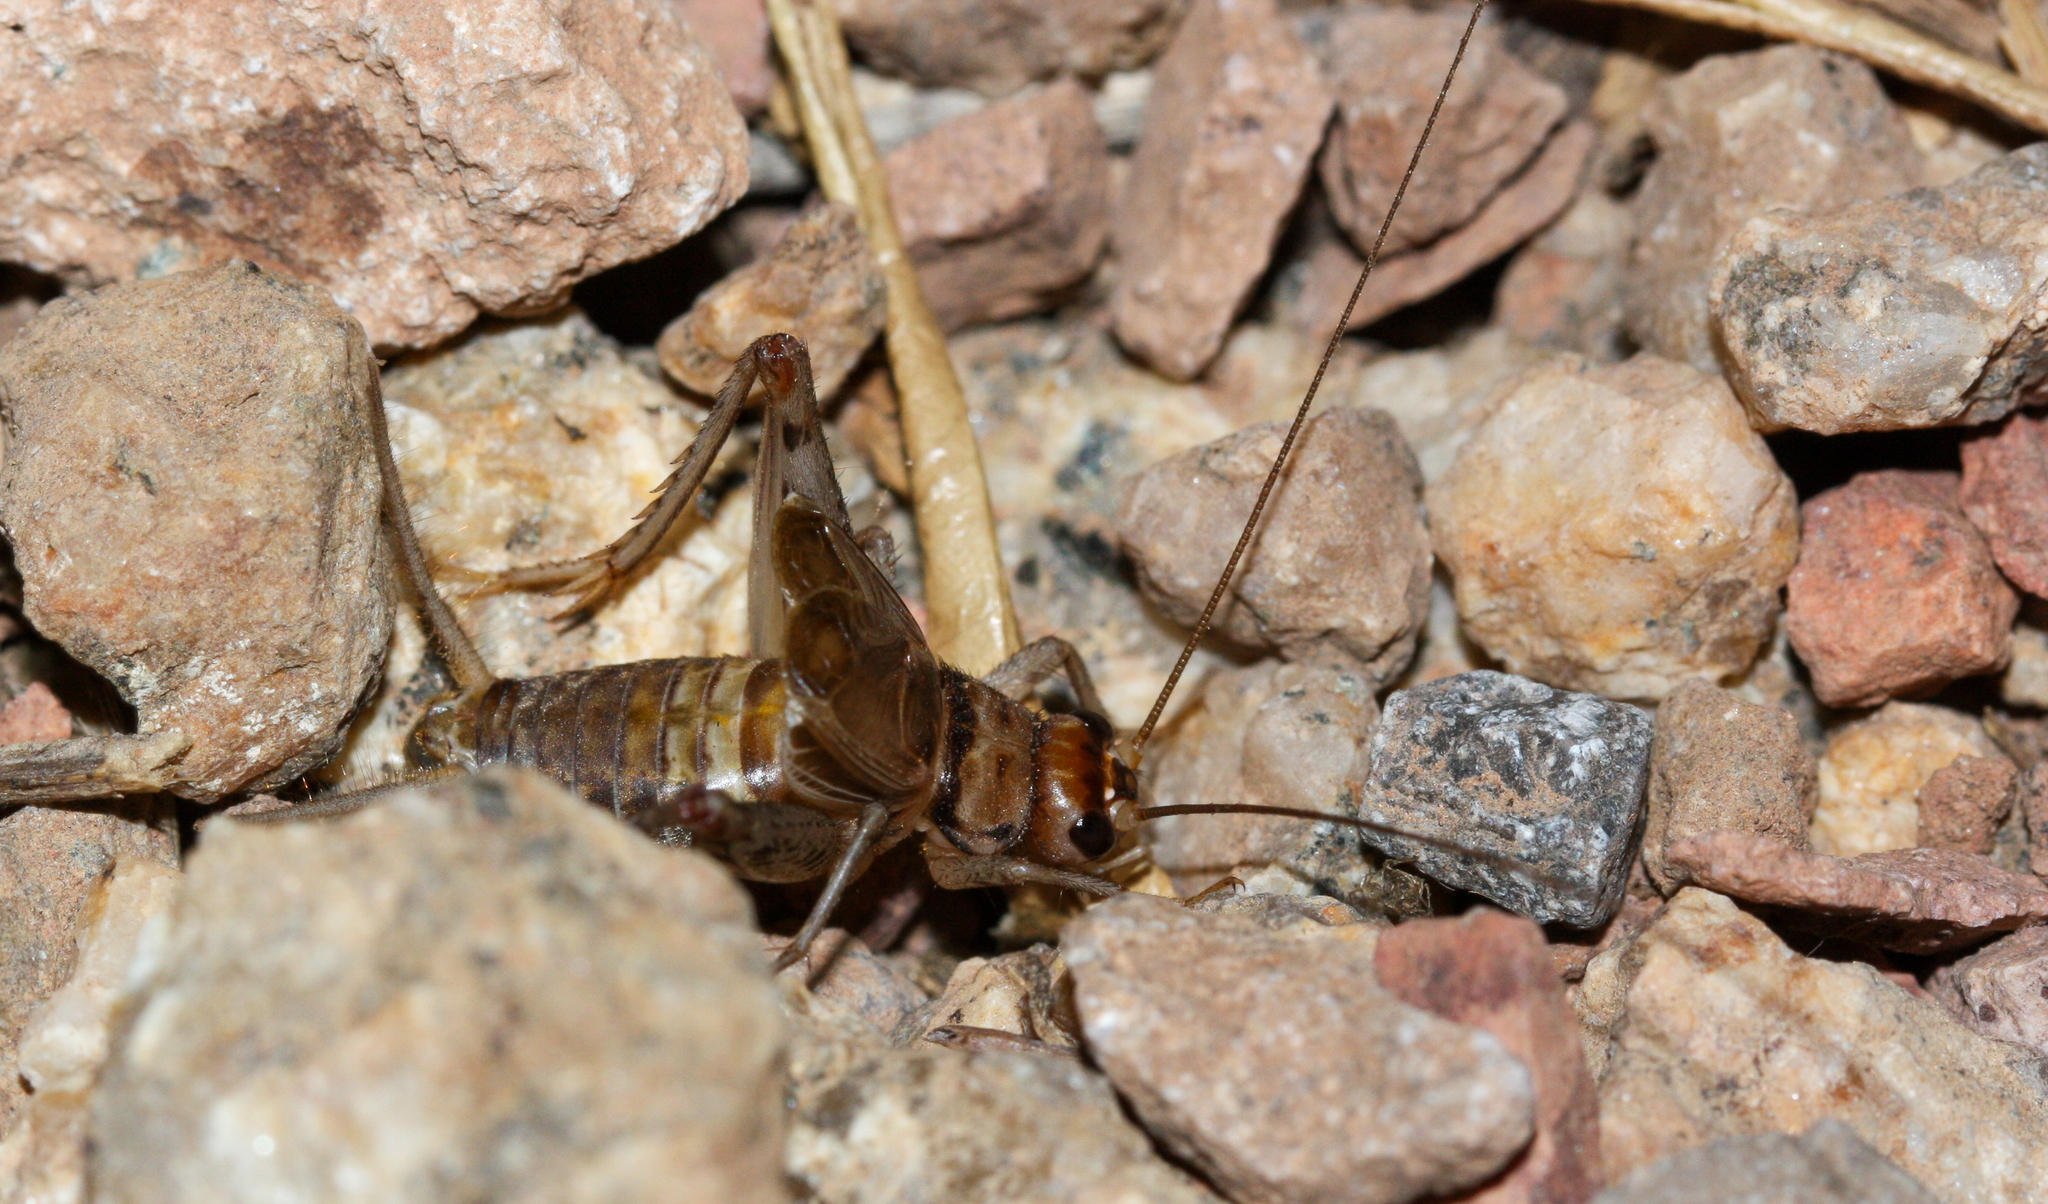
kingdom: Animalia
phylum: Arthropoda
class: Insecta
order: Orthoptera
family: Gryllidae
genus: Gryllodes
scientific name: Gryllodes sigillatus
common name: Tropical house cricket
